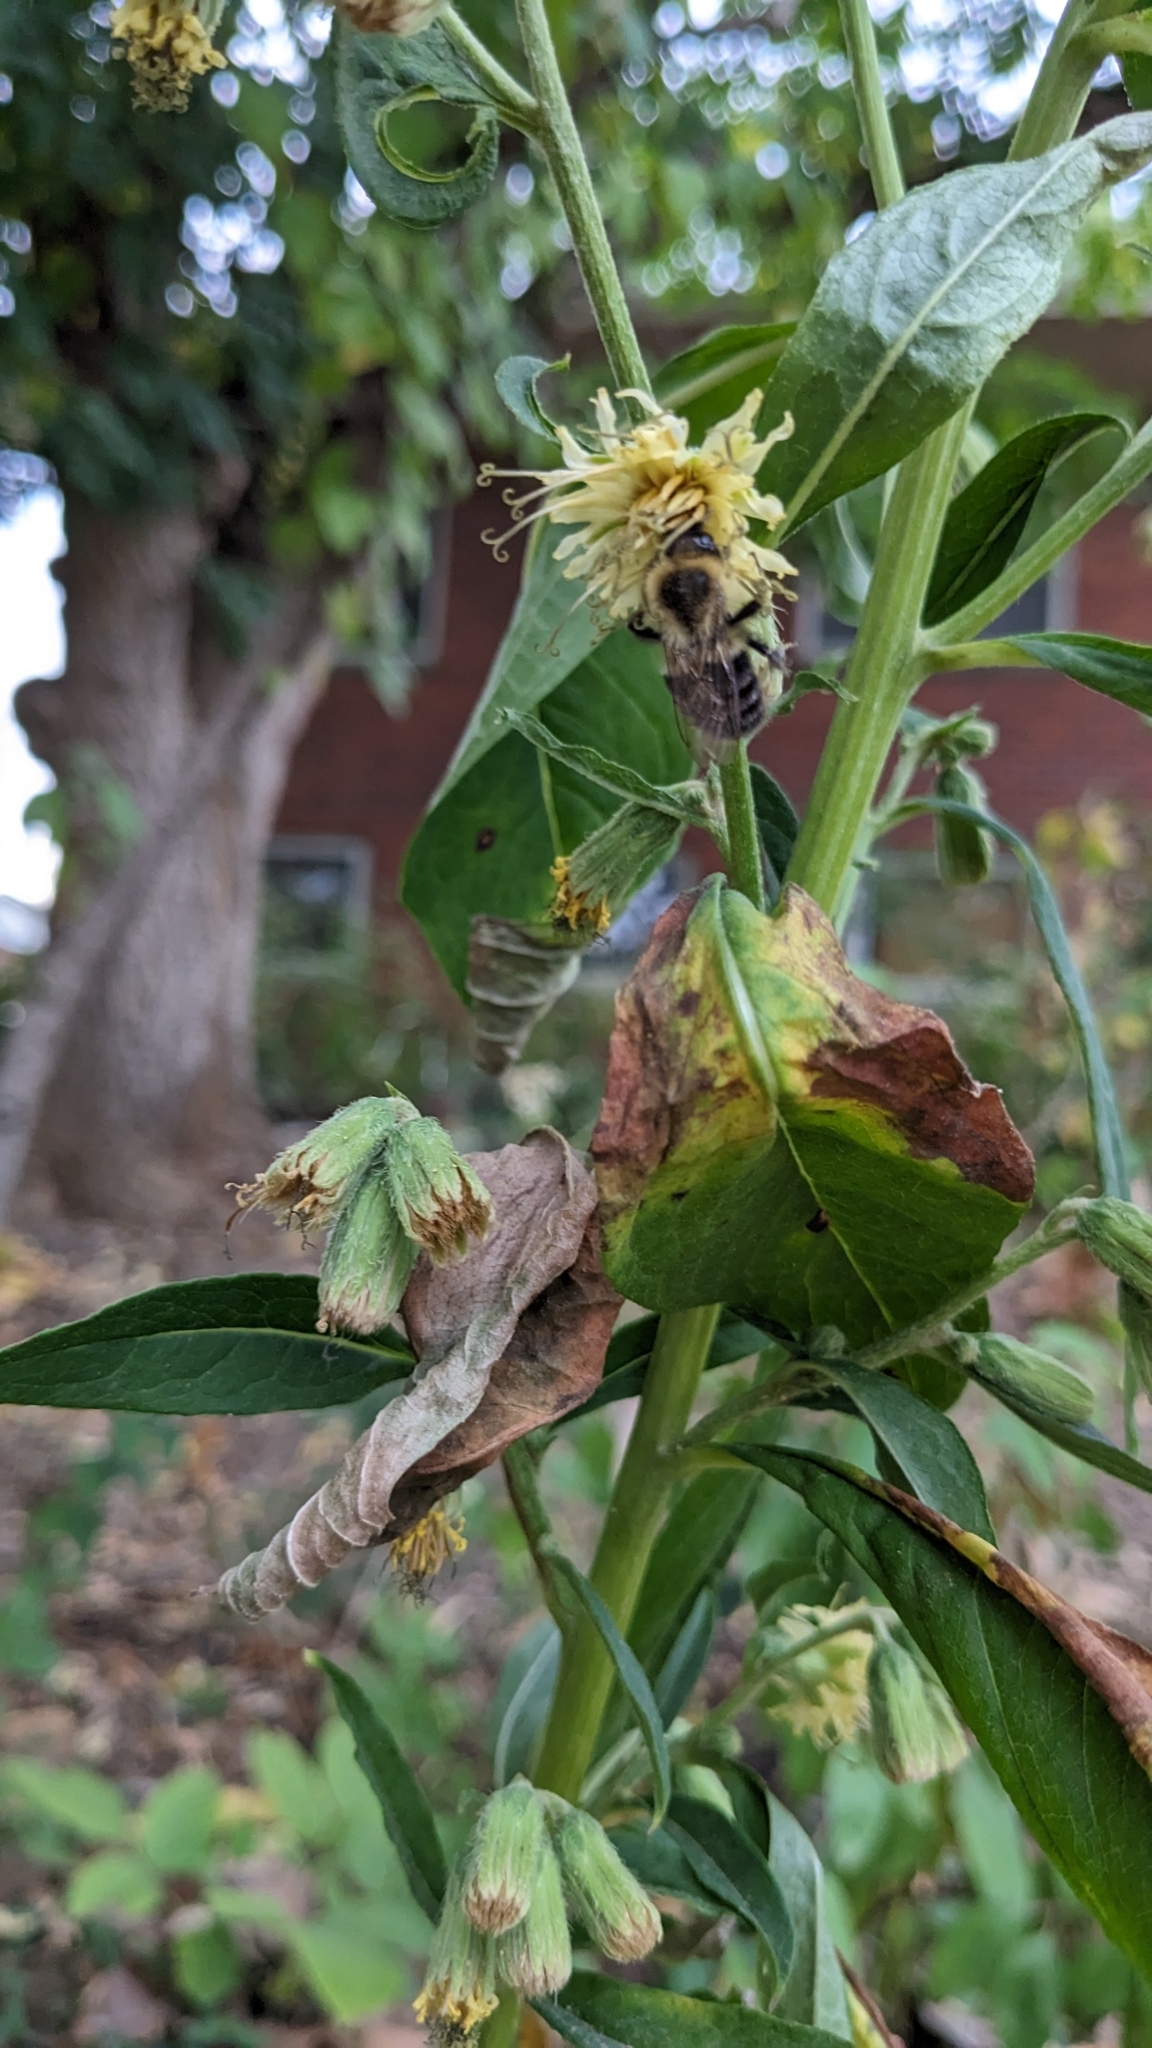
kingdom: Animalia
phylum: Arthropoda
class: Insecta
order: Hymenoptera
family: Apidae
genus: Bombus
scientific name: Bombus impatiens
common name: Common eastern bumble bee
